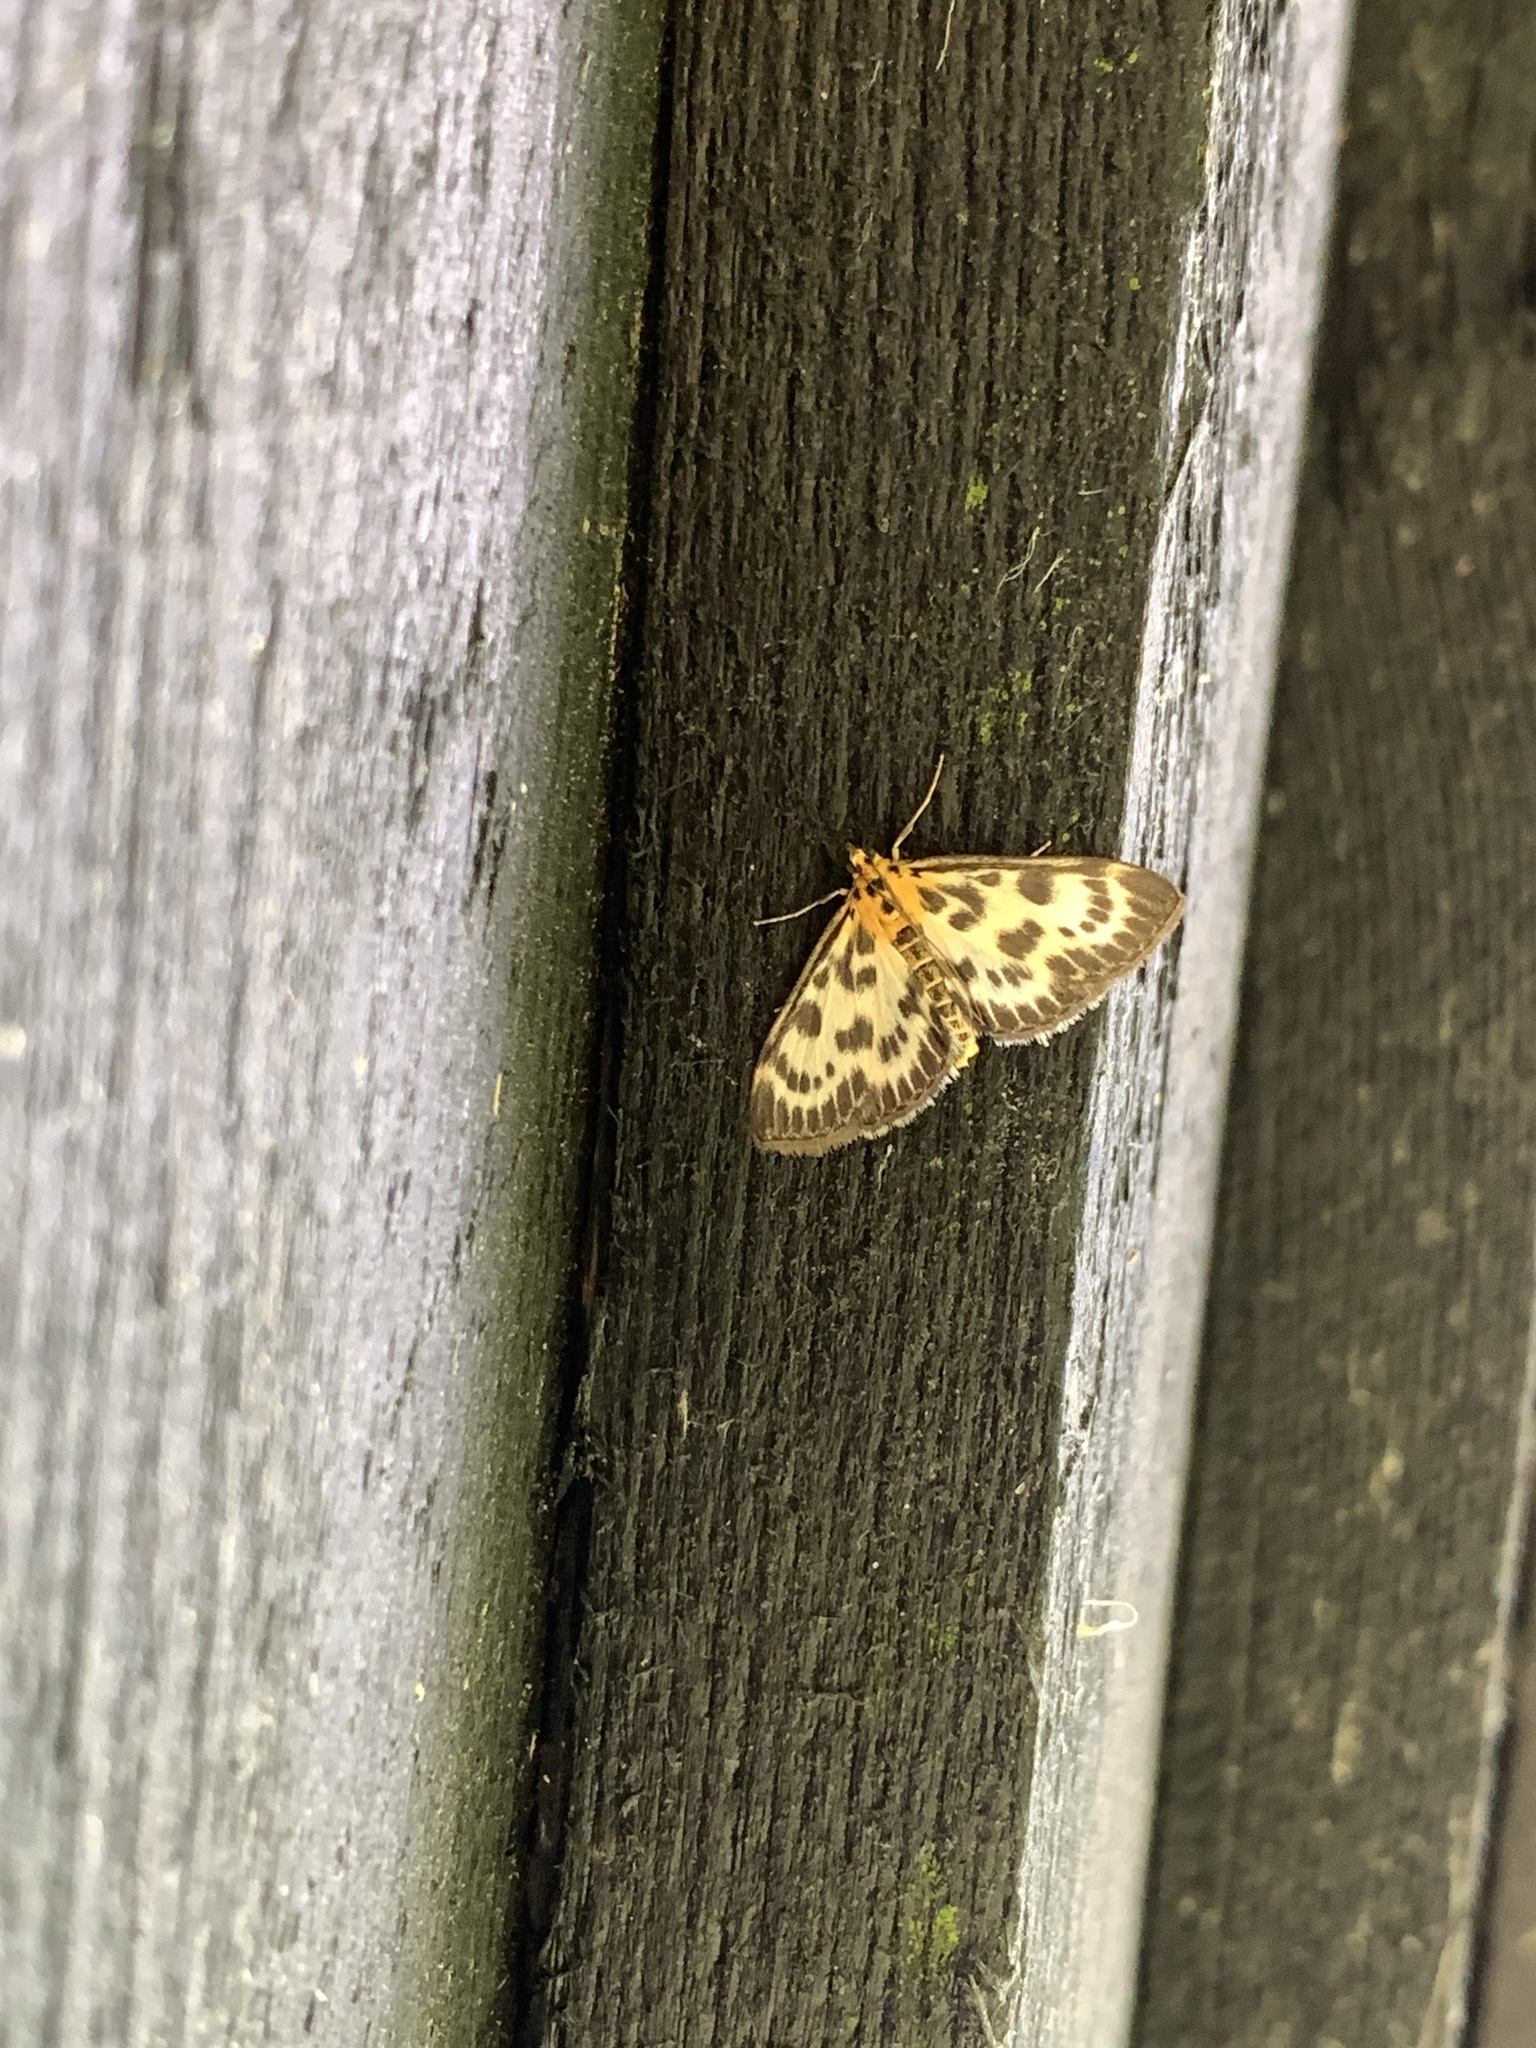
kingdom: Animalia
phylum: Arthropoda
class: Insecta
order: Lepidoptera
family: Crambidae
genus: Anania
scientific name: Anania hortulata
